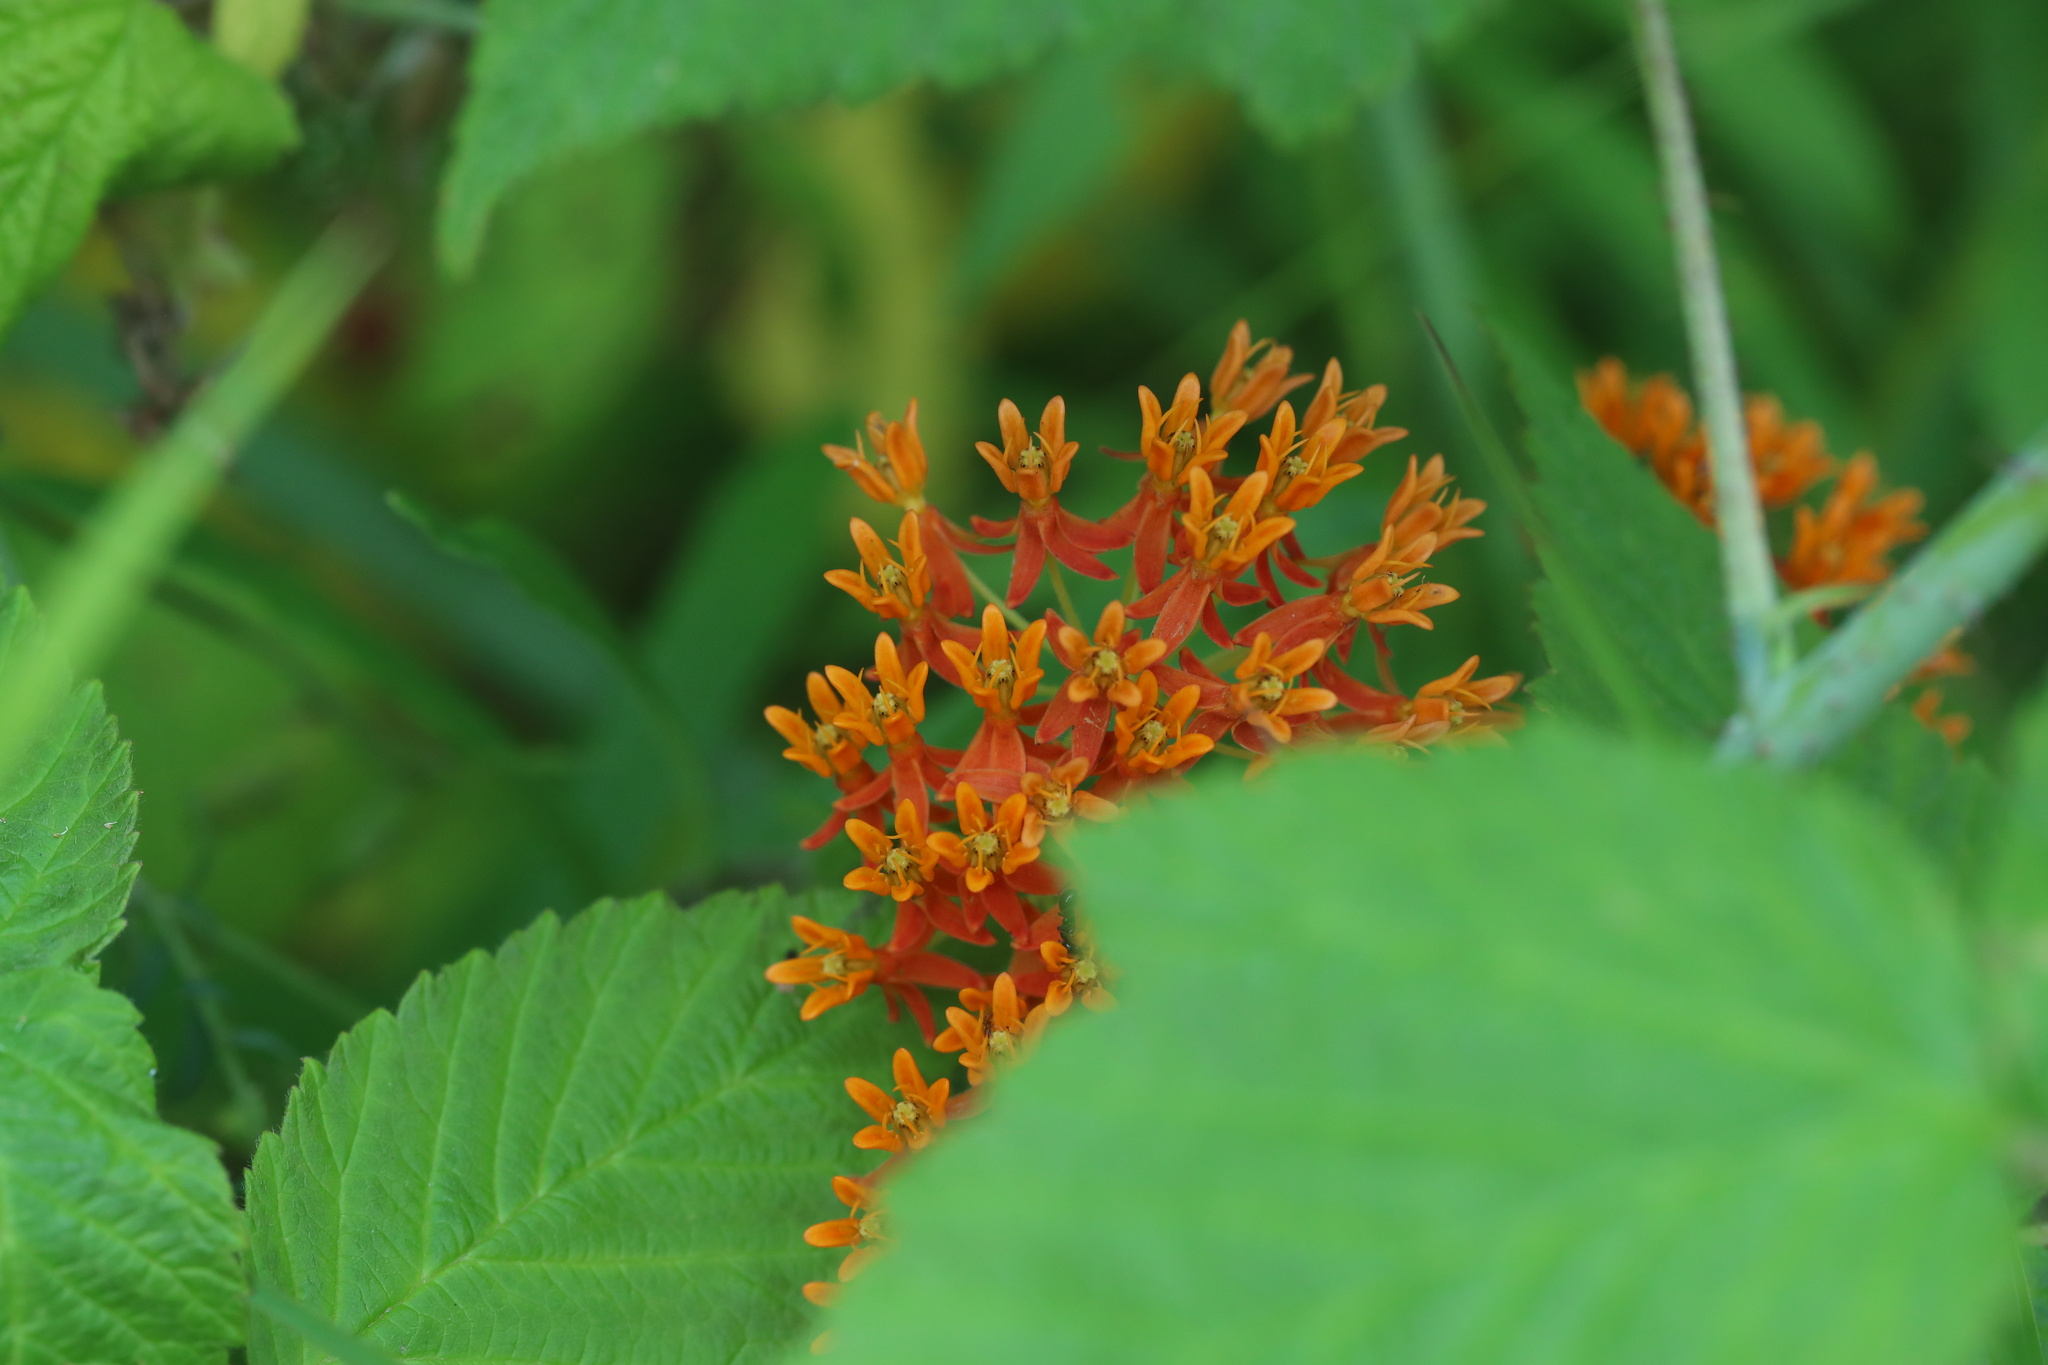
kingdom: Plantae
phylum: Tracheophyta
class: Magnoliopsida
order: Gentianales
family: Apocynaceae
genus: Asclepias
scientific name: Asclepias tuberosa
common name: Butterfly milkweed
